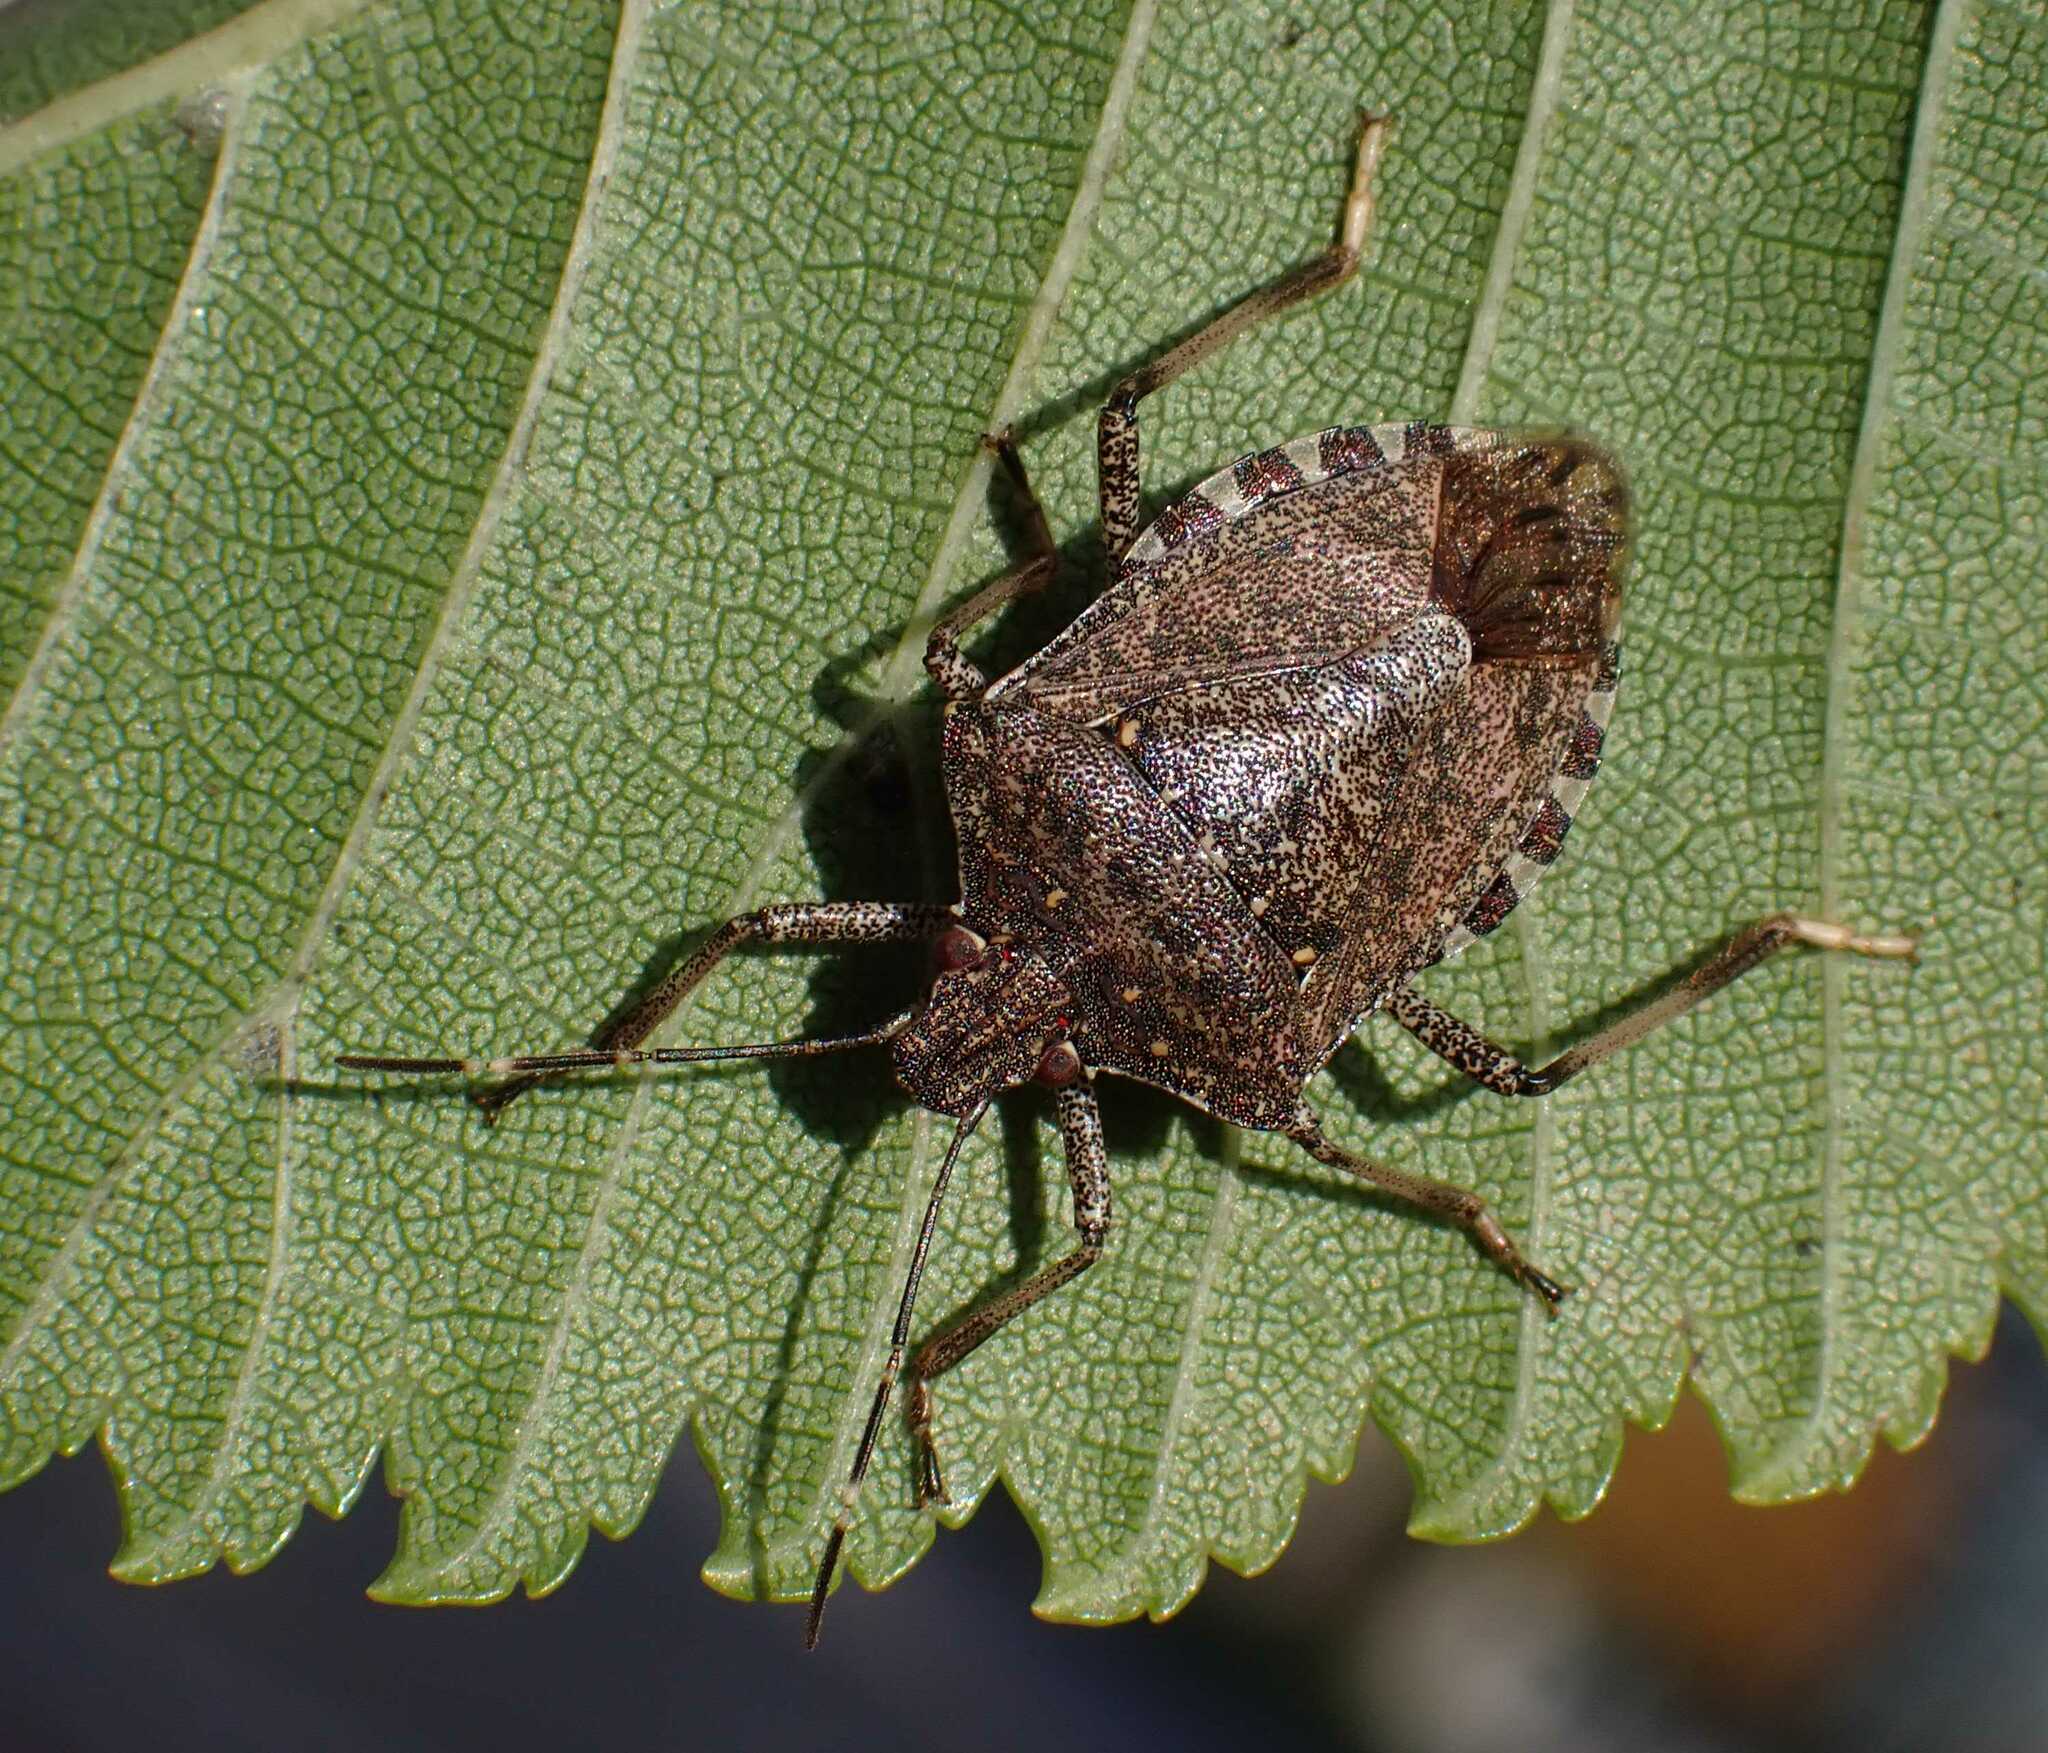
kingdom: Animalia
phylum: Arthropoda
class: Insecta
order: Hemiptera
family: Pentatomidae
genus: Halyomorpha
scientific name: Halyomorpha halys
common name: Brown marmorated stink bug
